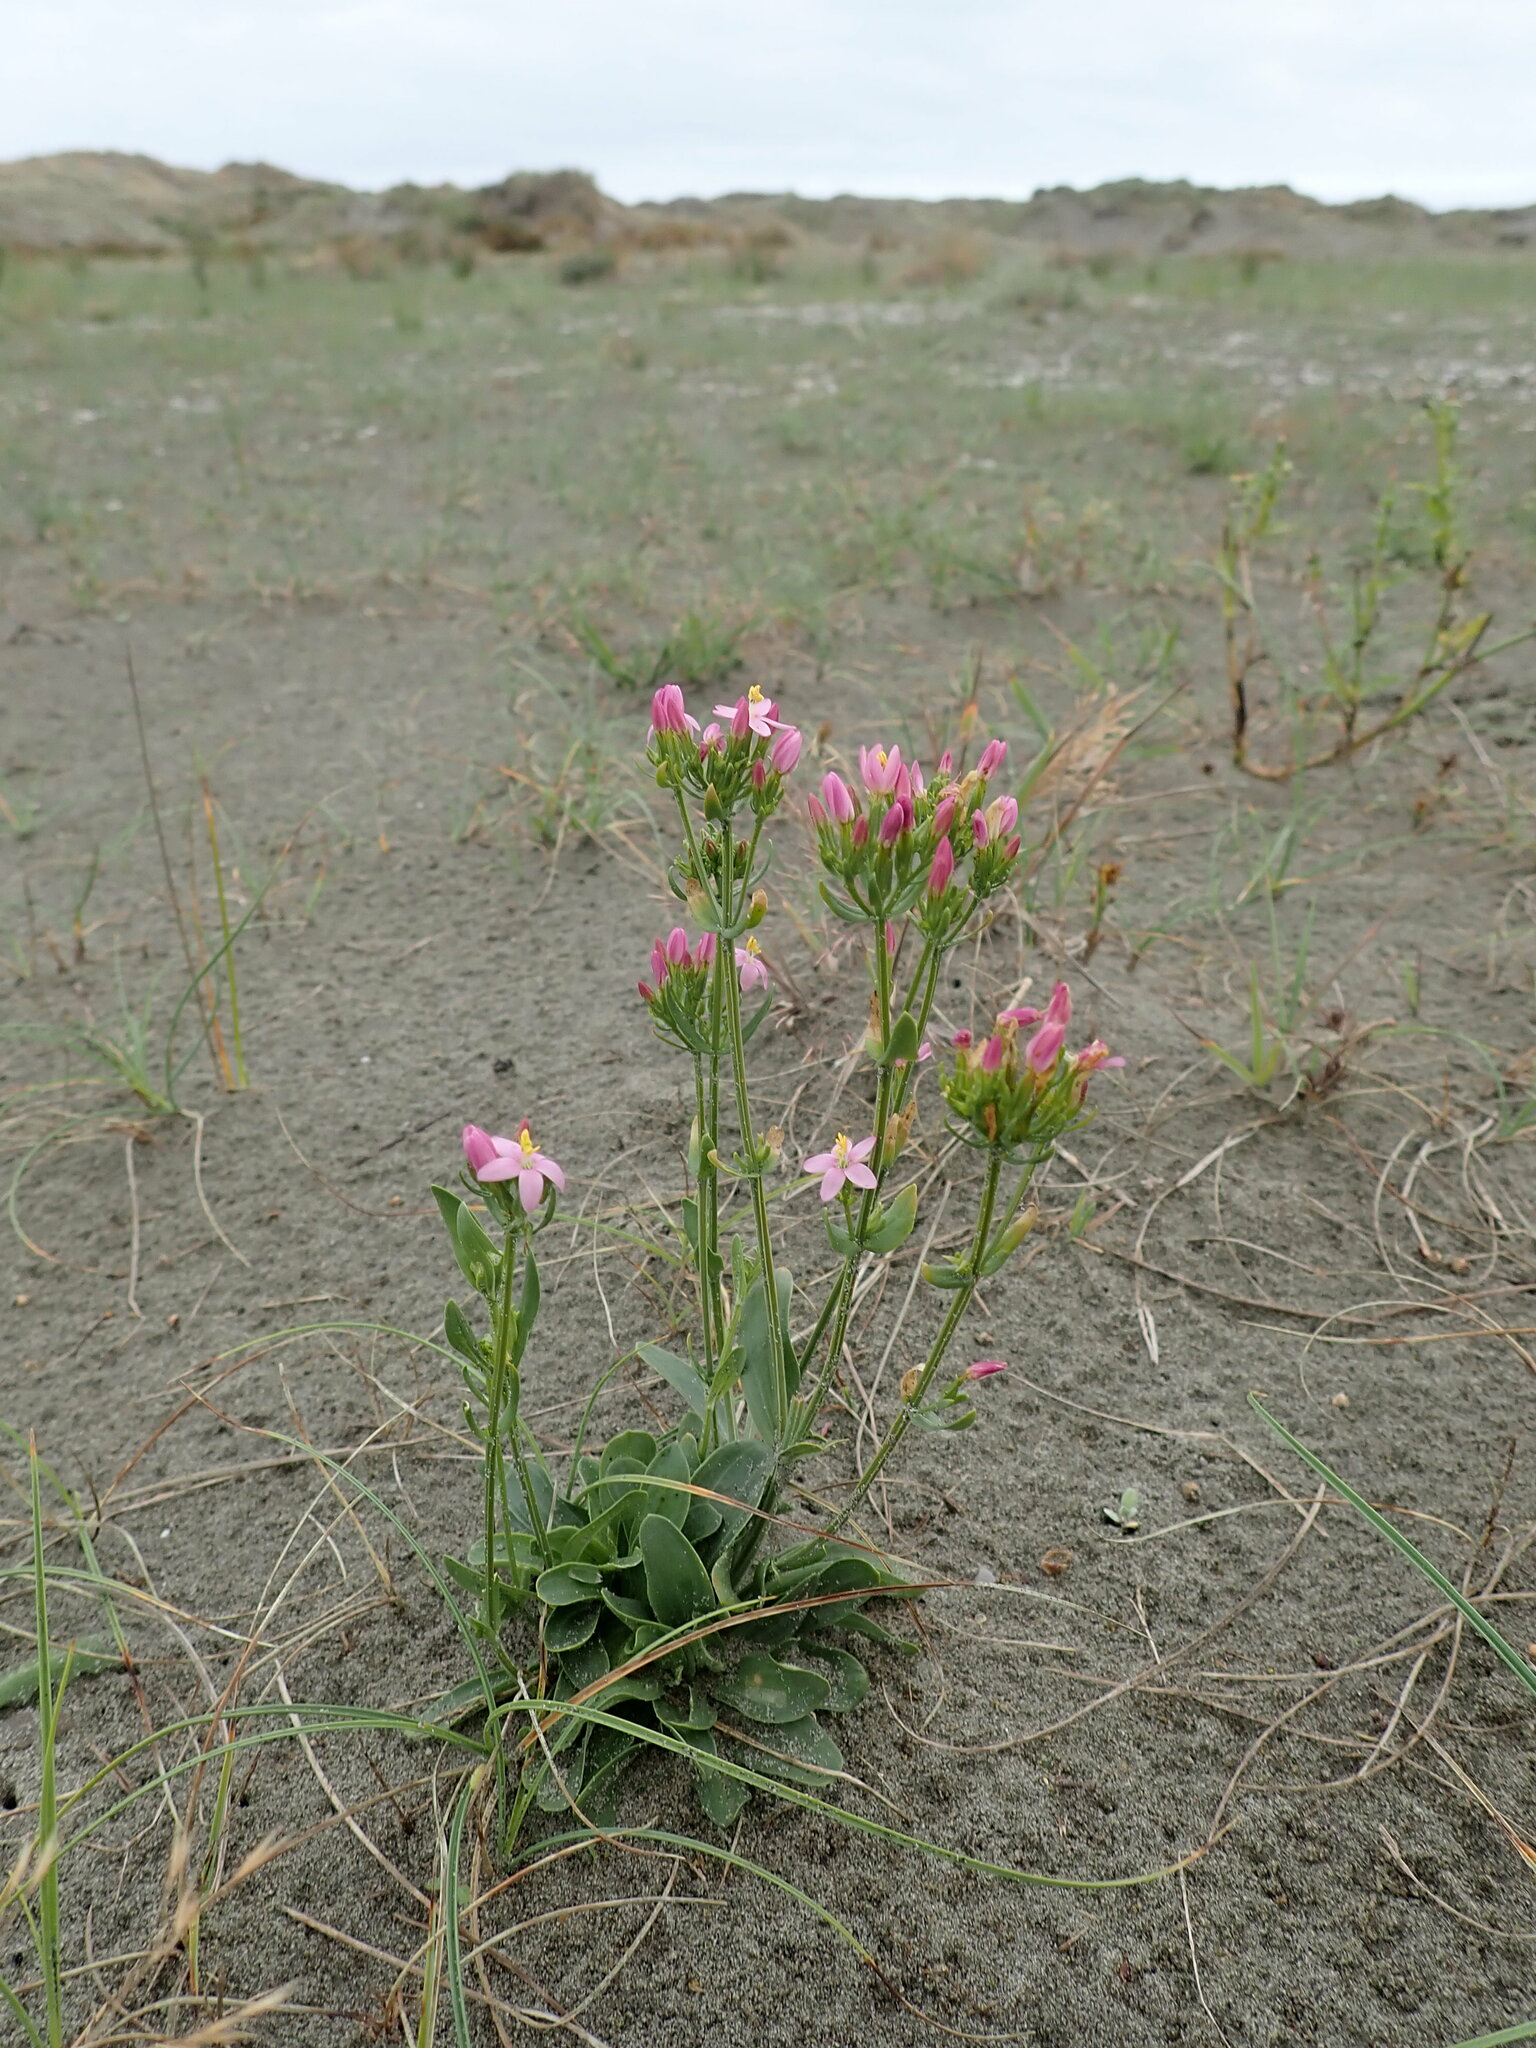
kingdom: Plantae
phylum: Tracheophyta
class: Magnoliopsida
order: Gentianales
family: Gentianaceae
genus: Centaurium
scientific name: Centaurium erythraea
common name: Common centaury
